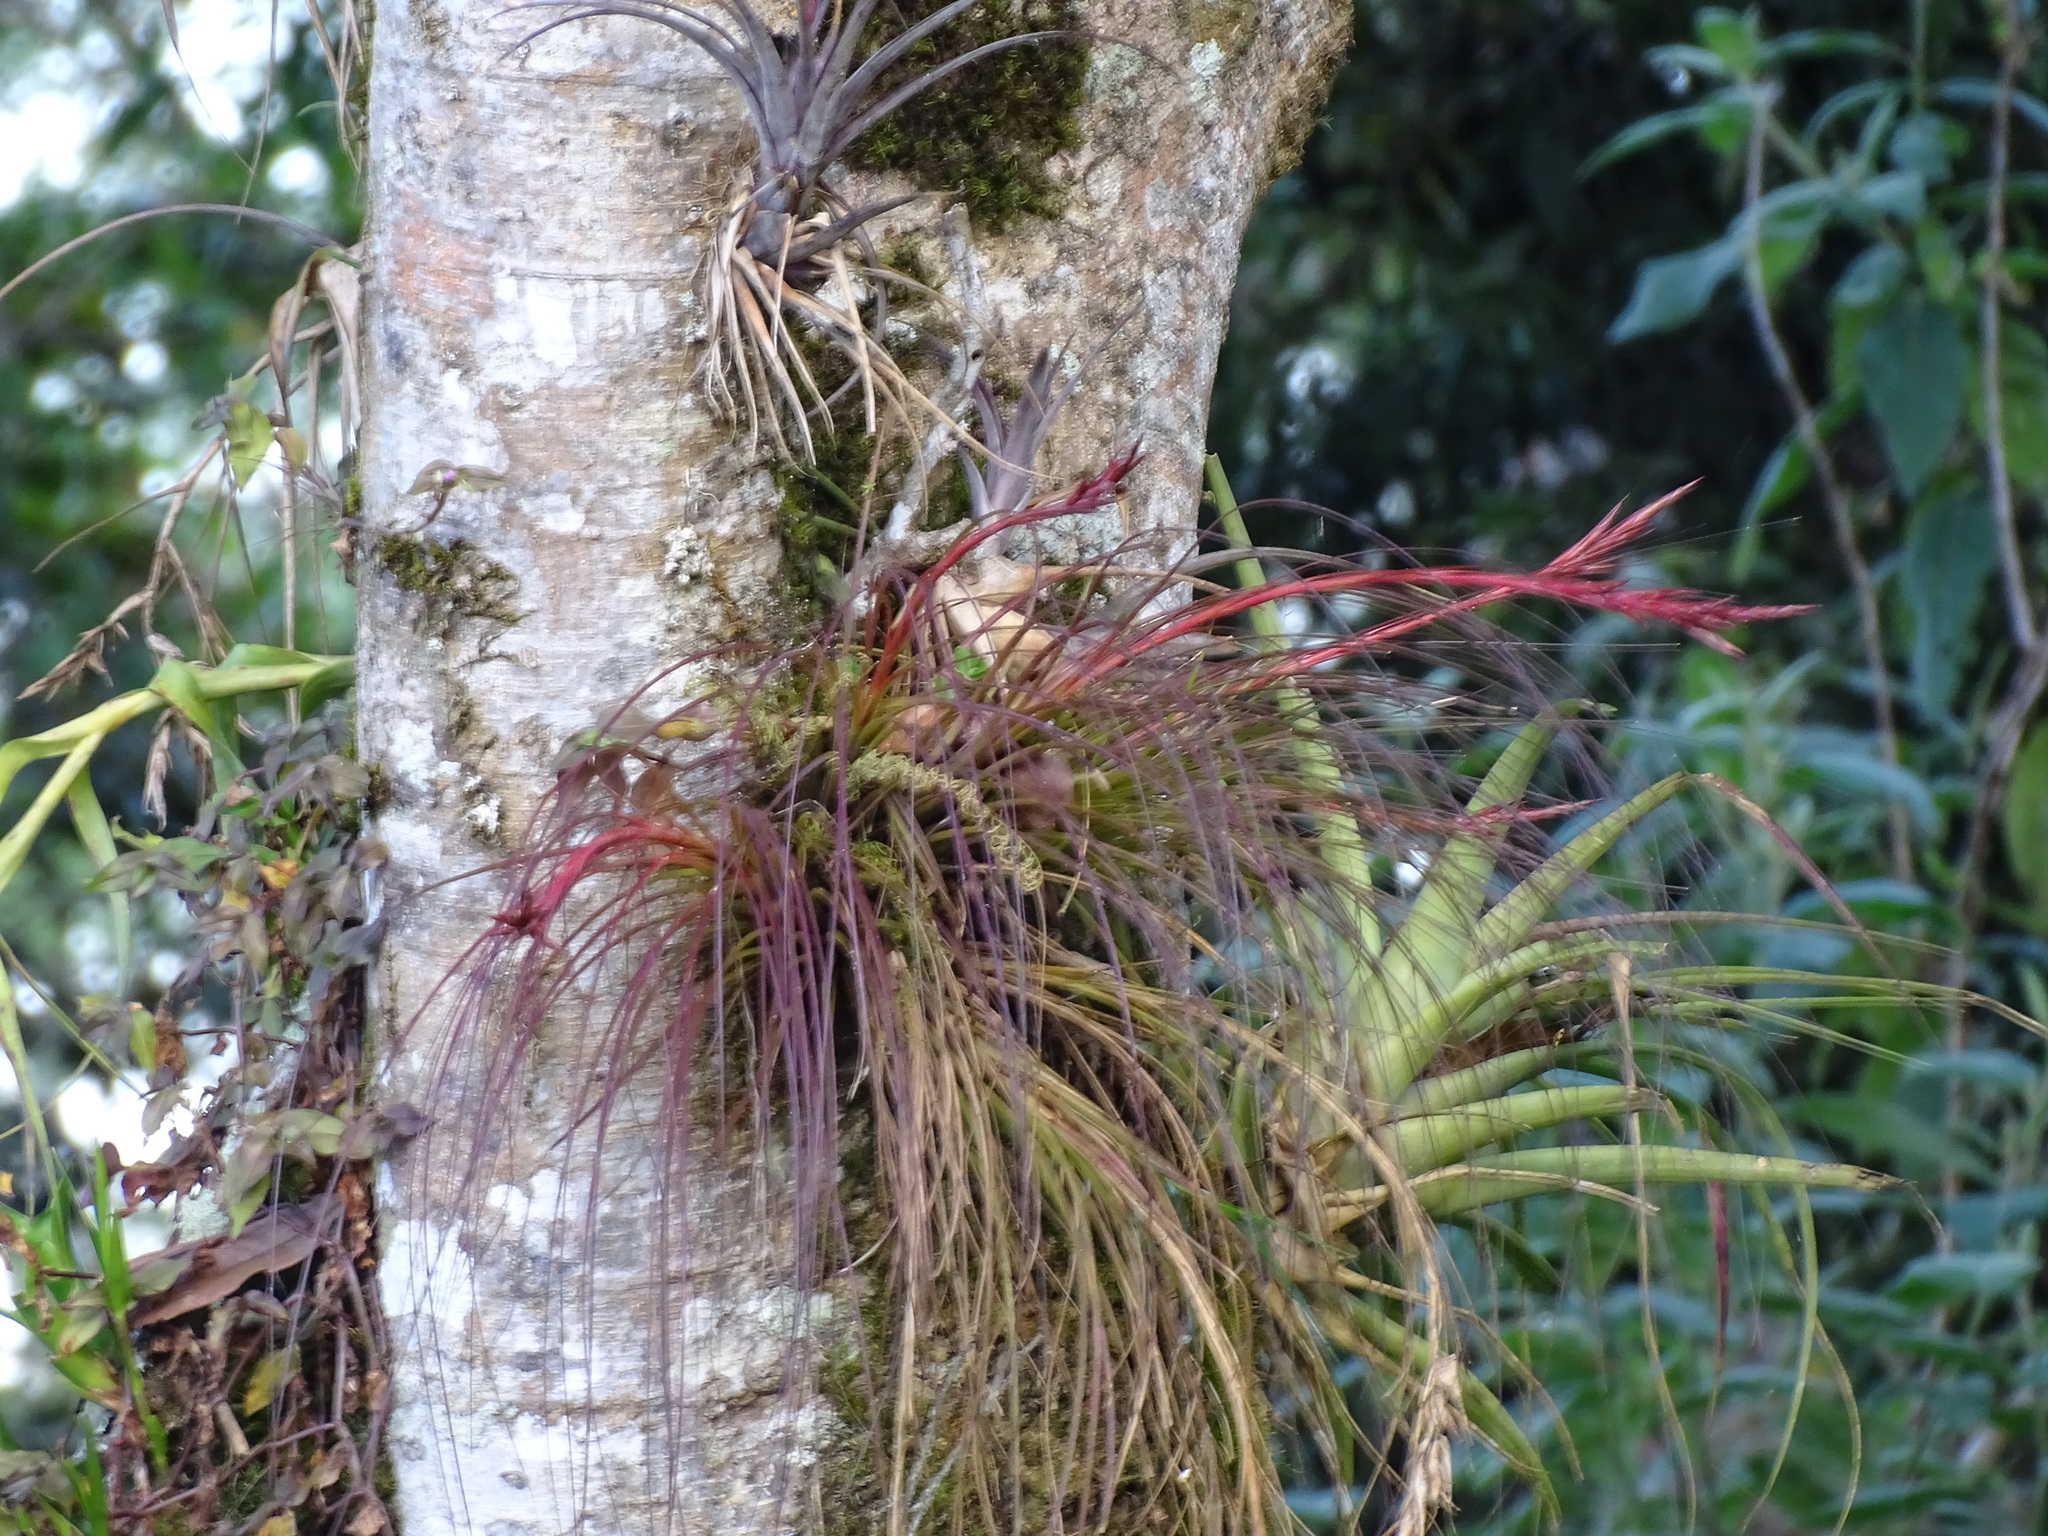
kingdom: Plantae
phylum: Tracheophyta
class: Liliopsida
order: Poales
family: Bromeliaceae
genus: Tillandsia
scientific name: Tillandsia festucoides
